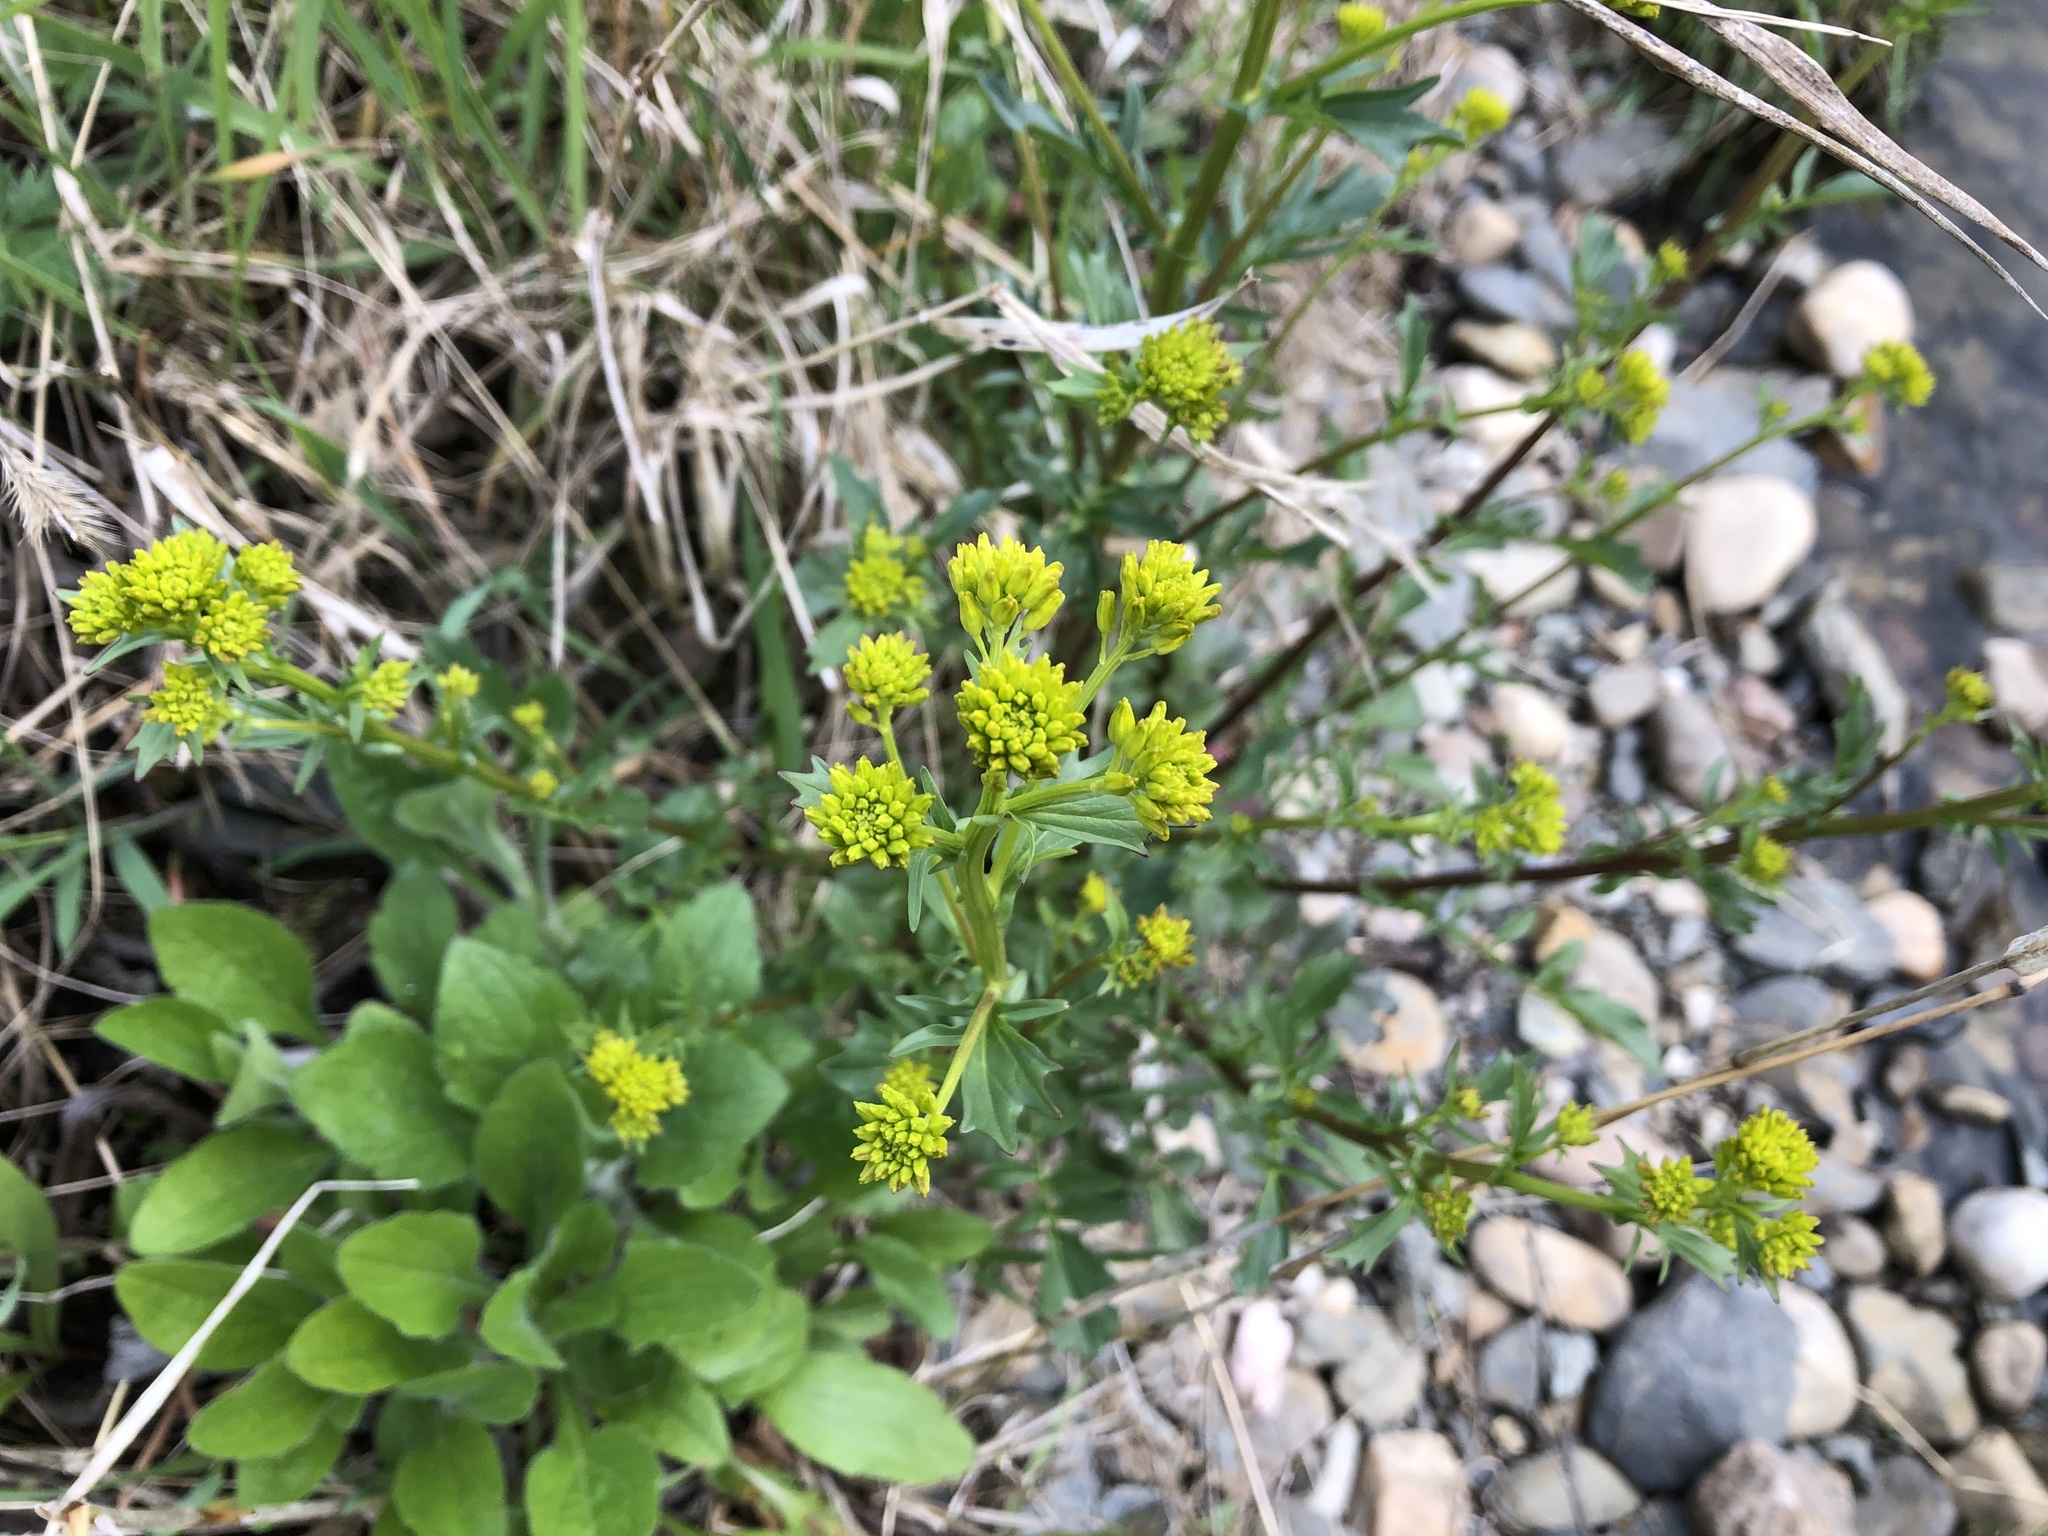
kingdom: Plantae
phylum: Tracheophyta
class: Magnoliopsida
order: Brassicales
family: Brassicaceae
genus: Barbarea
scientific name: Barbarea vulgaris
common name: Cressy-greens
